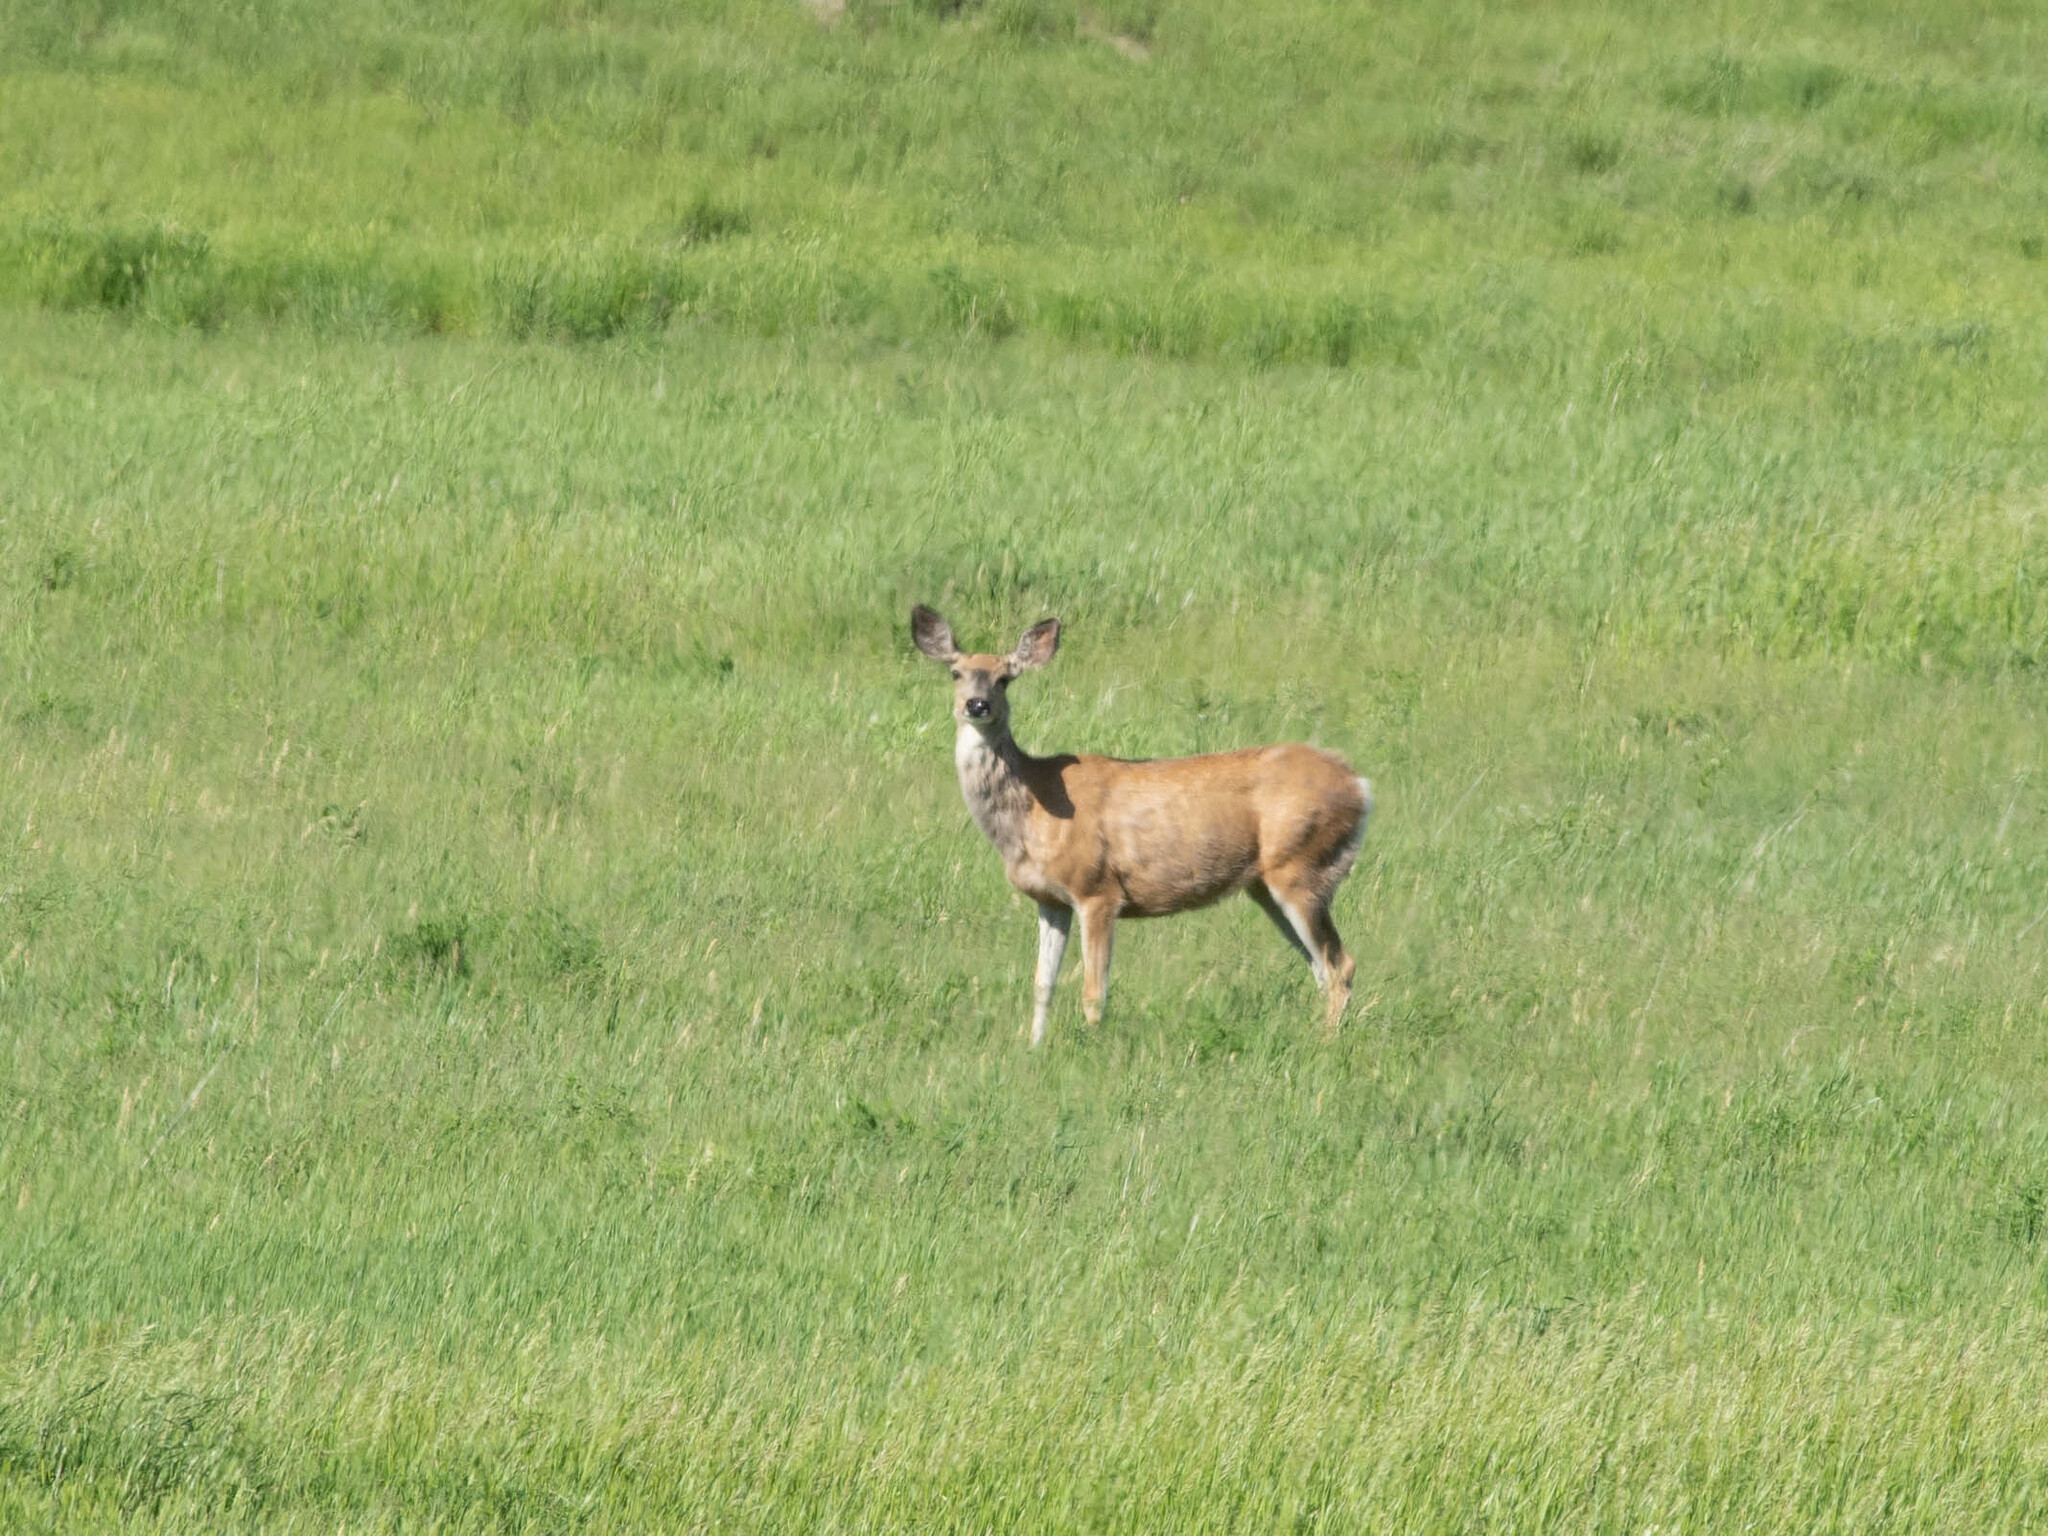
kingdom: Animalia
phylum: Chordata
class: Mammalia
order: Artiodactyla
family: Cervidae
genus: Odocoileus
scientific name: Odocoileus hemionus
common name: Mule deer
